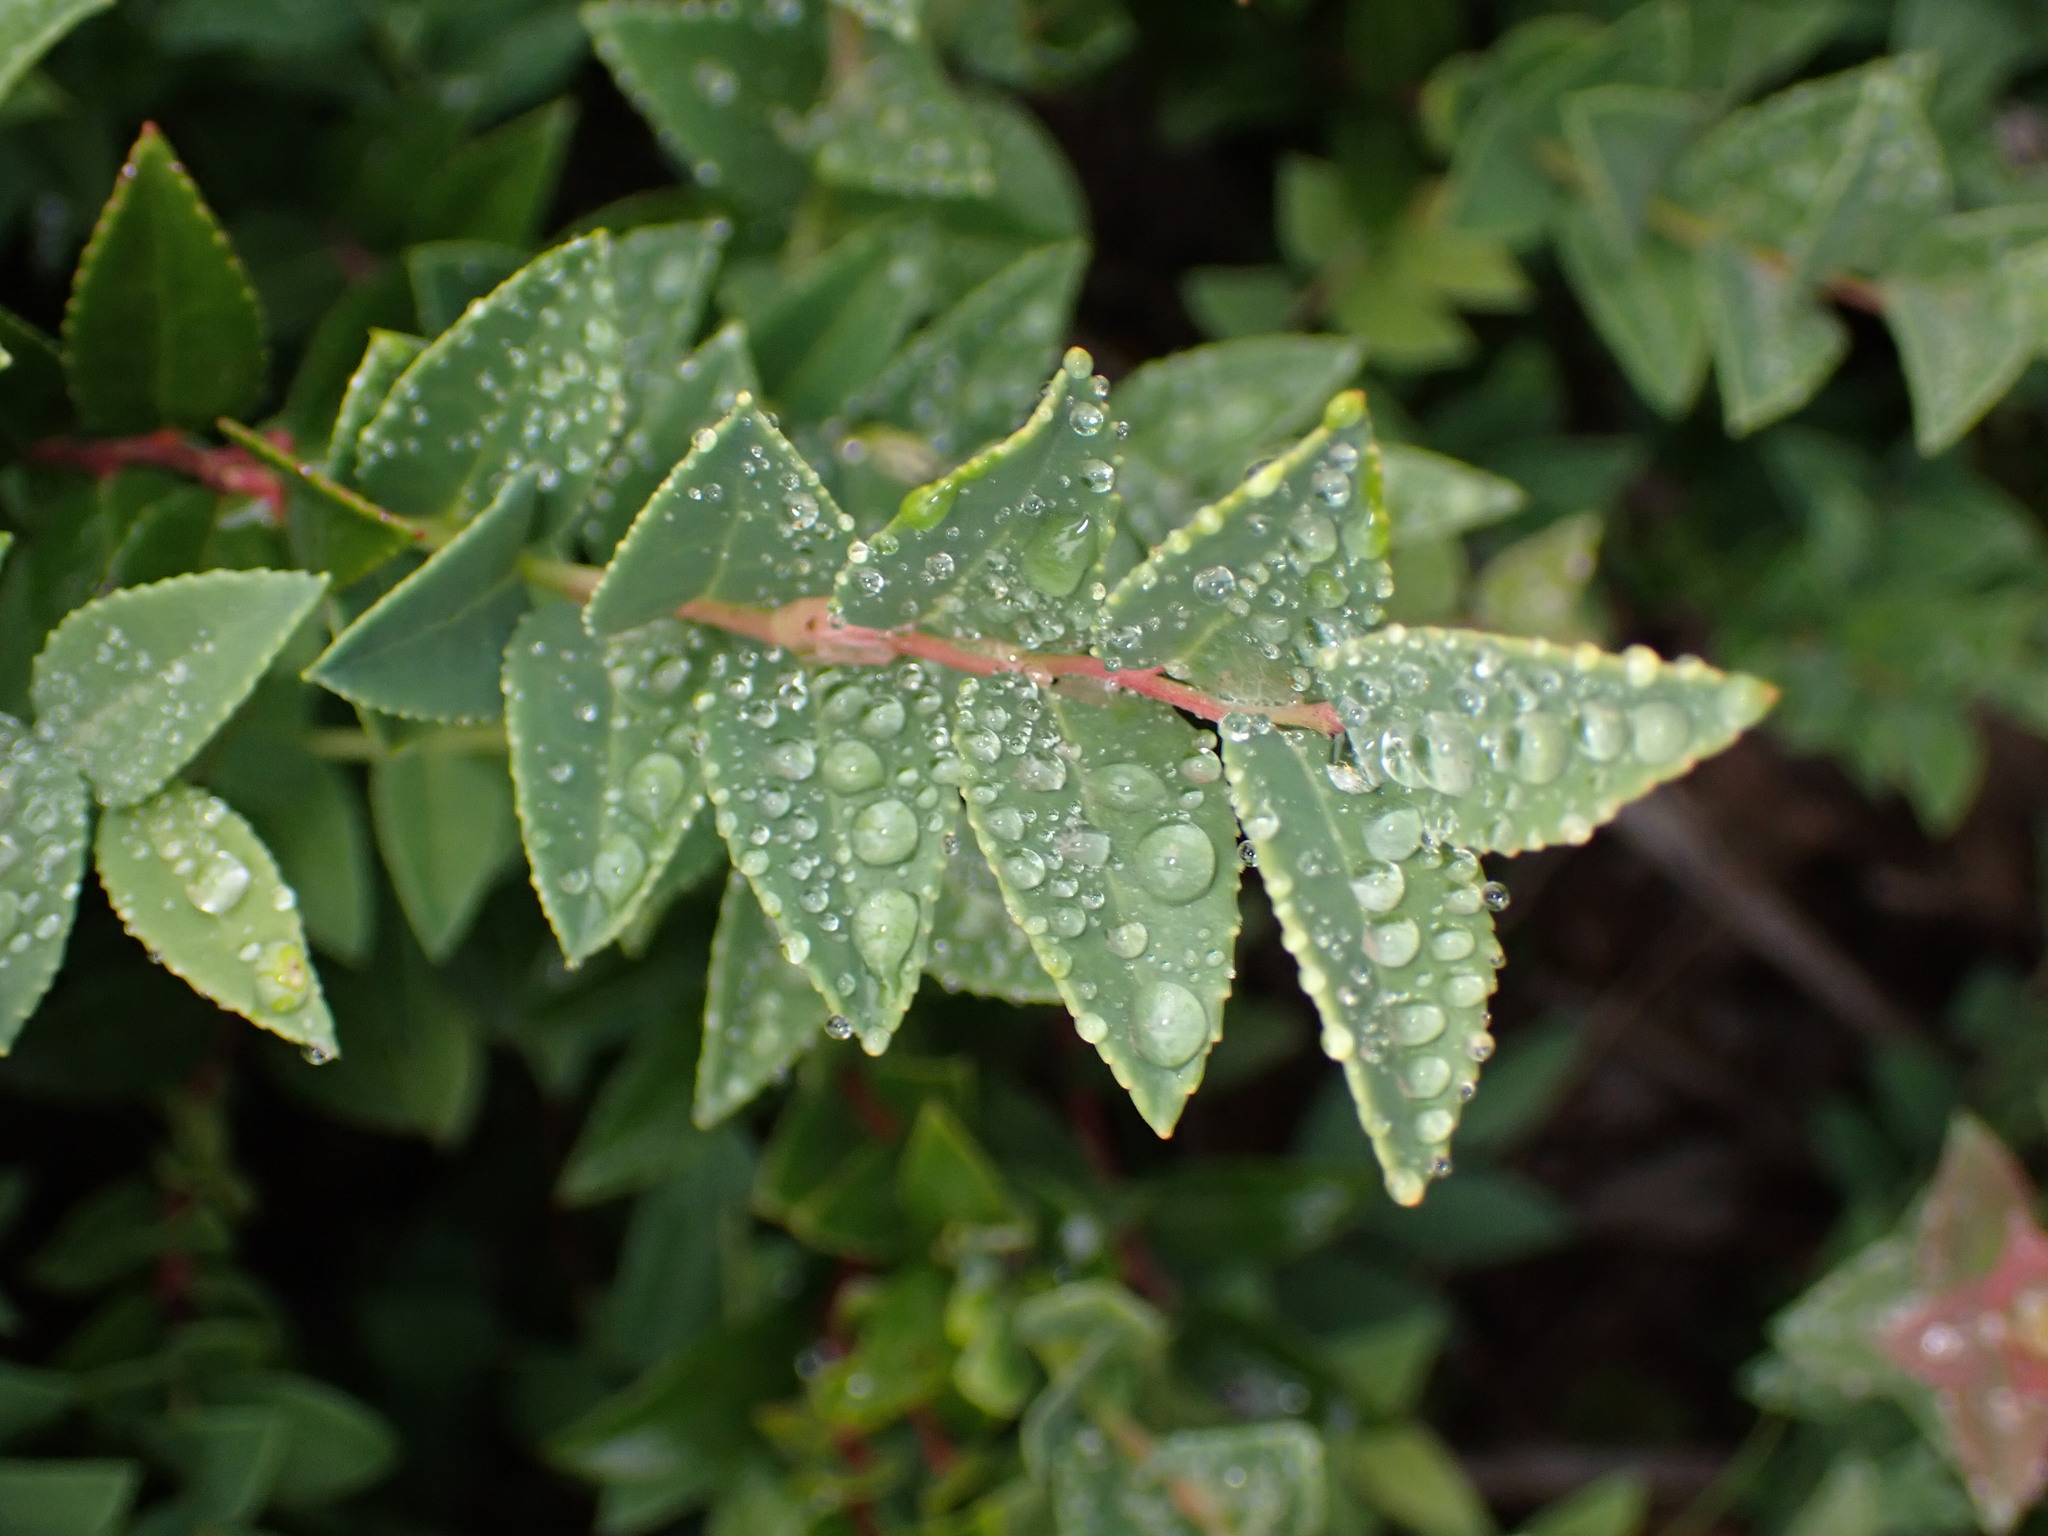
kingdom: Plantae
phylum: Tracheophyta
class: Magnoliopsida
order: Ericales
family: Ericaceae
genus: Vaccinium
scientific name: Vaccinium ovatum
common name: California-huckleberry
